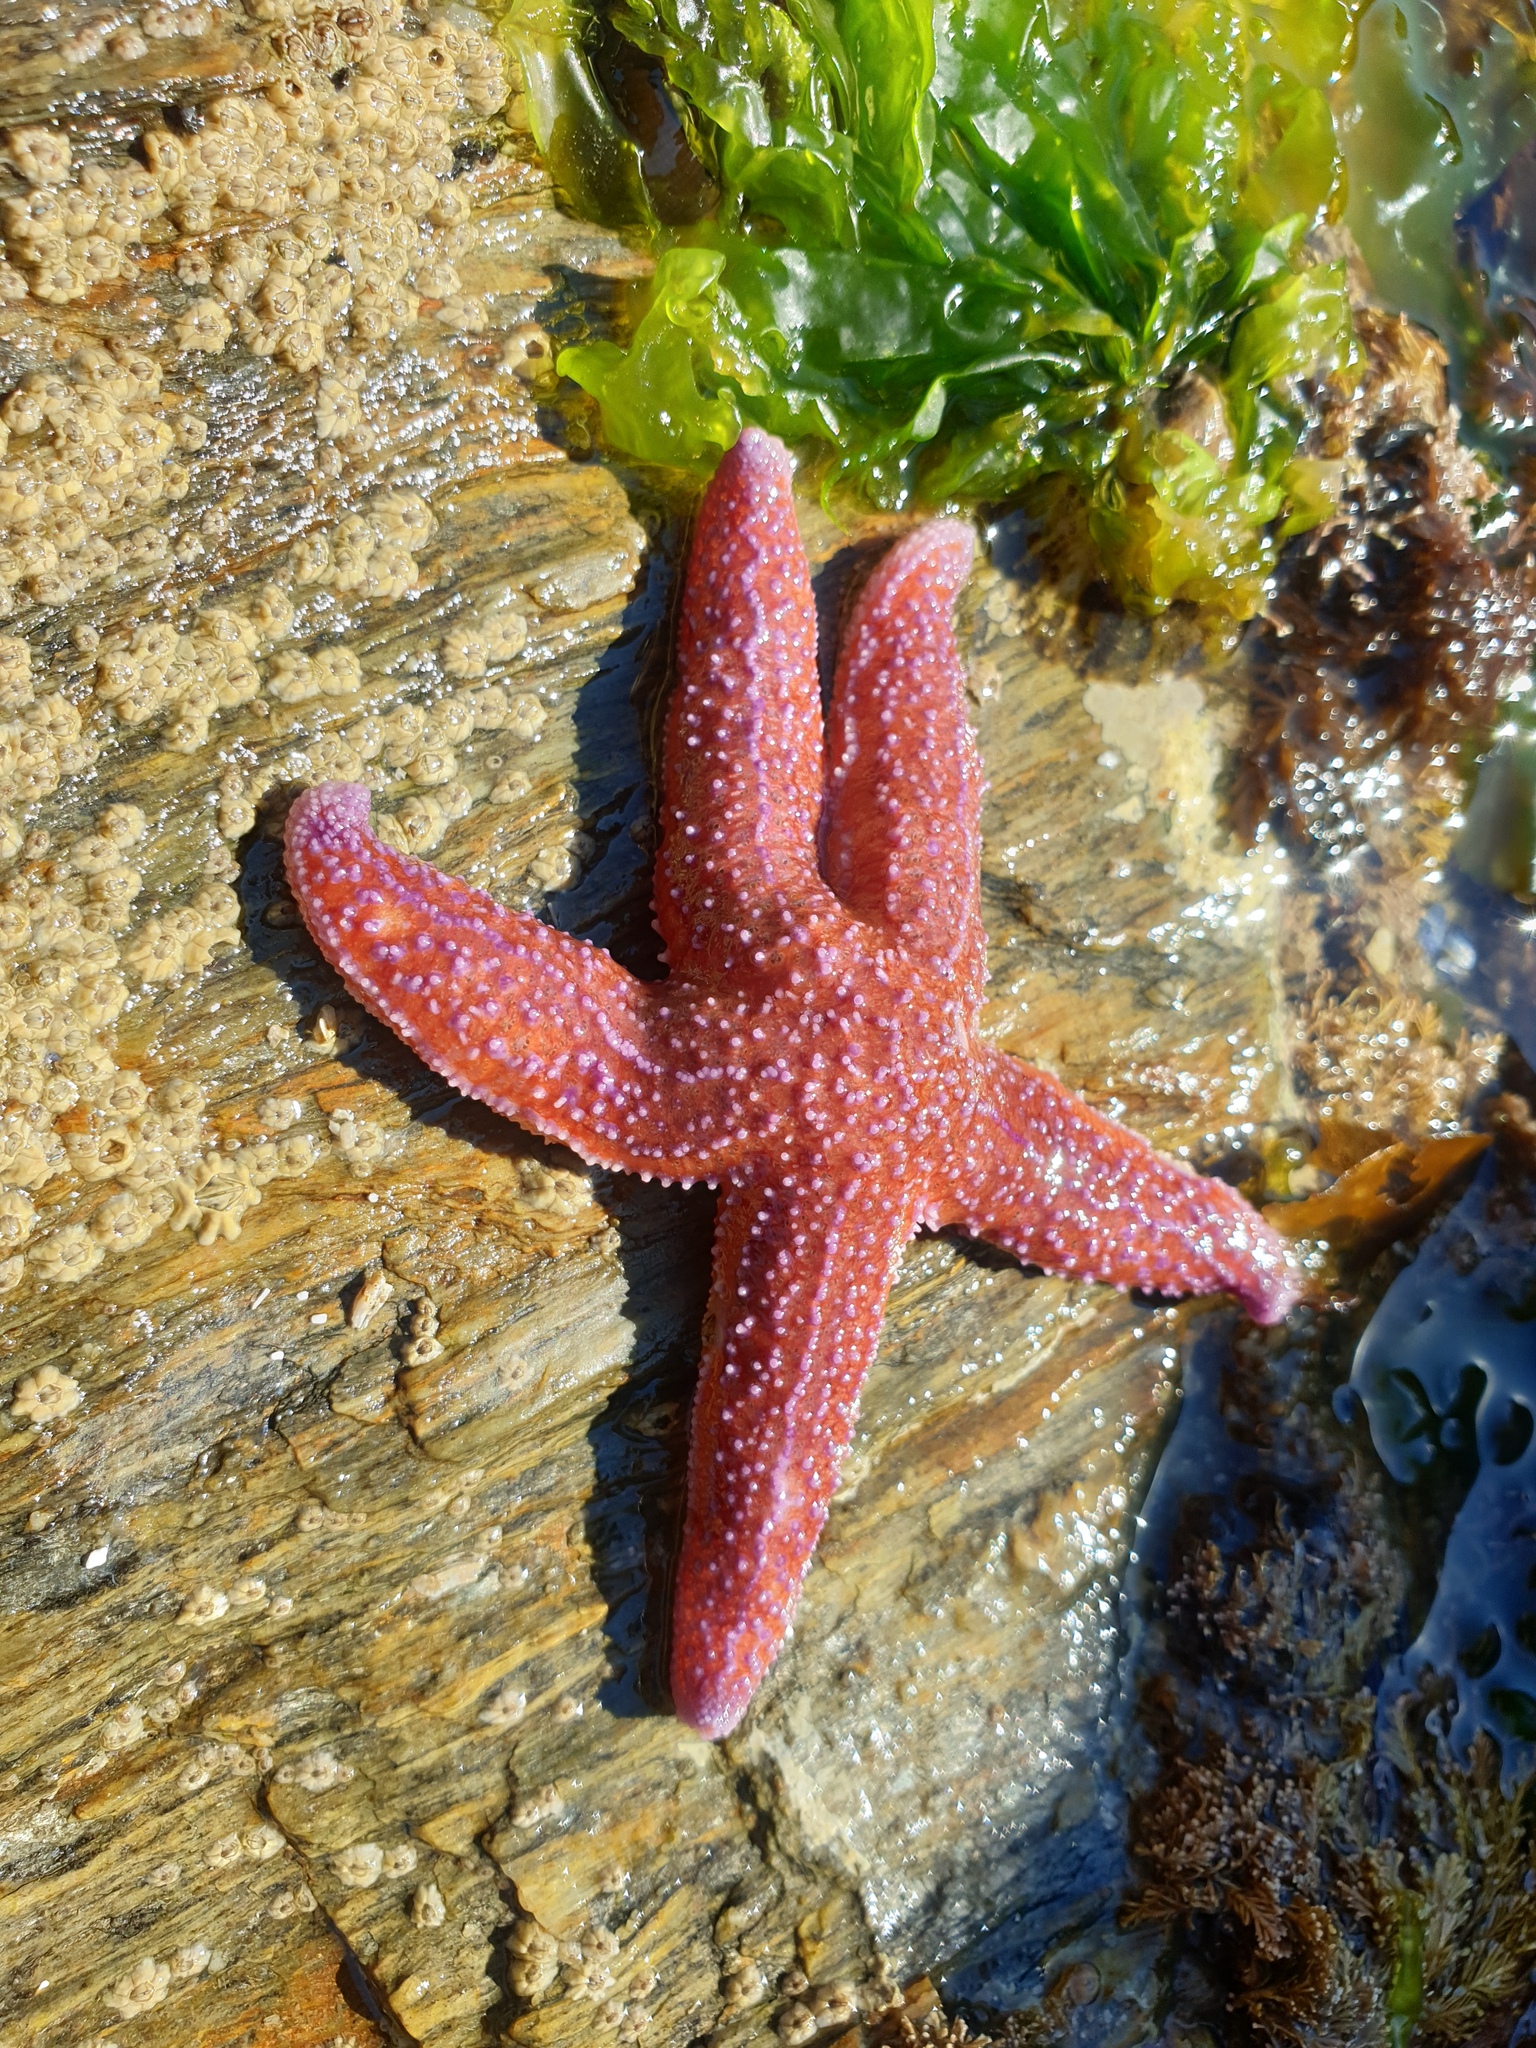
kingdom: Animalia
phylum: Echinodermata
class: Asteroidea
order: Forcipulatida
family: Asteriidae
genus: Asterias
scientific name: Asterias rubens
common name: Common starfish
